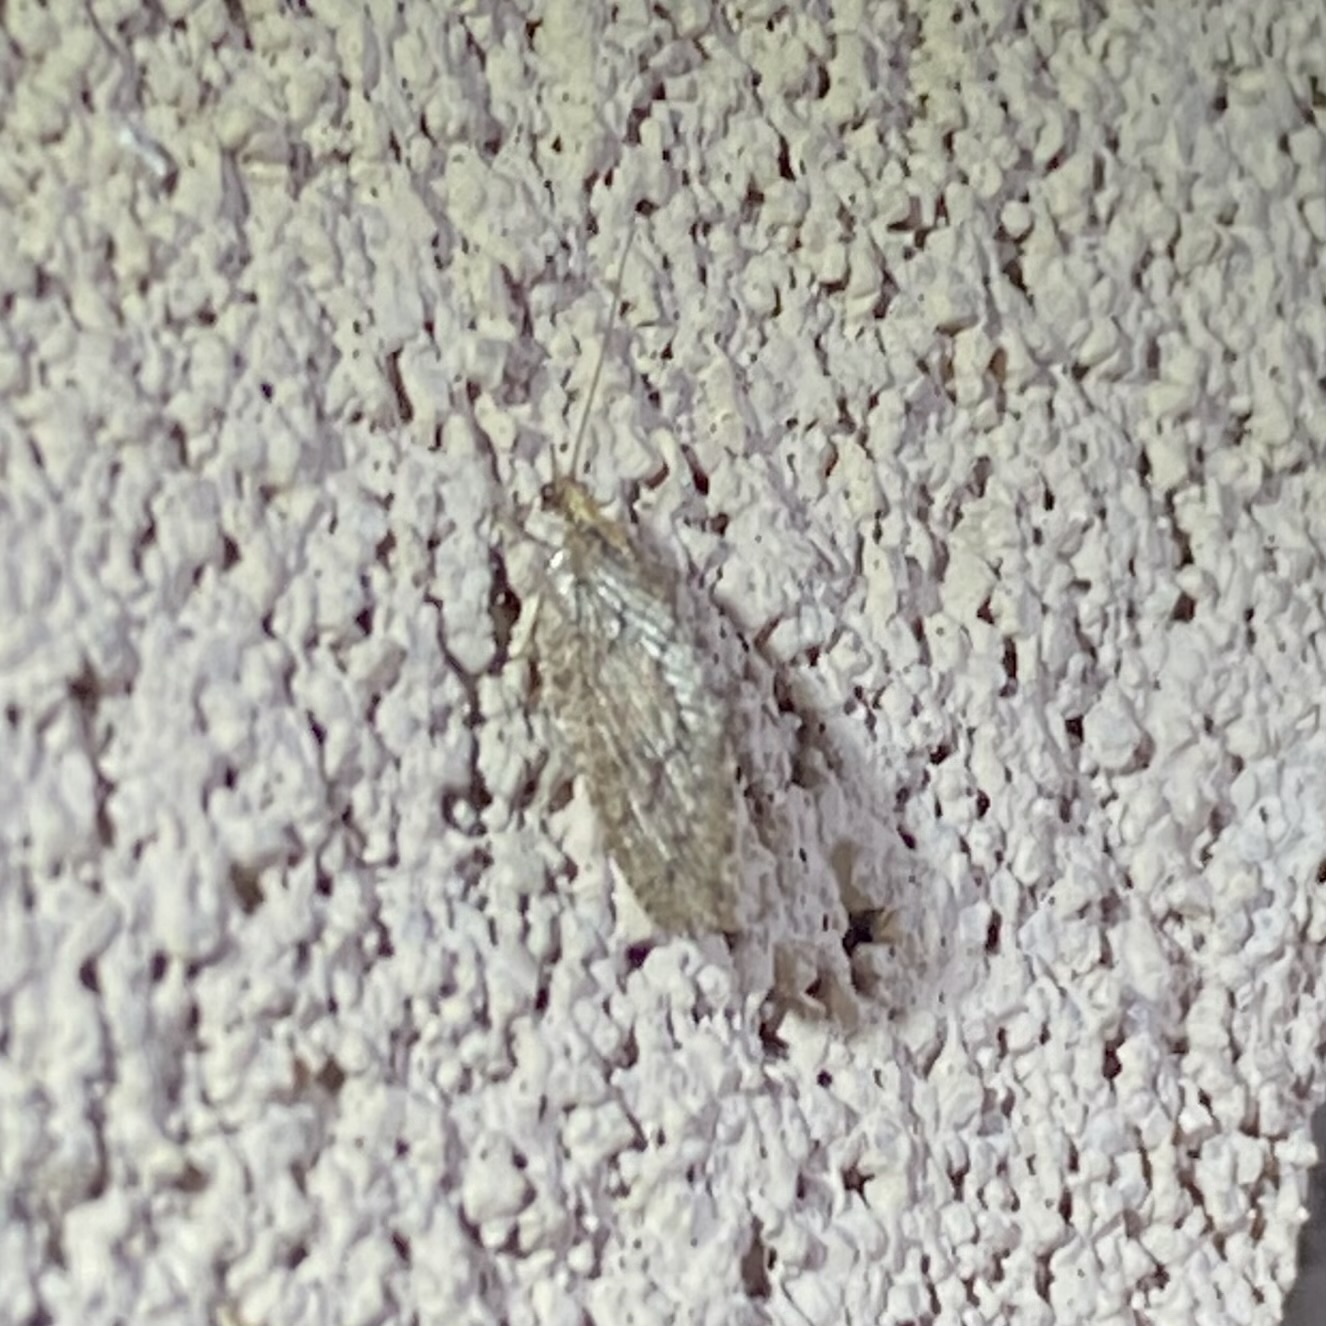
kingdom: Animalia
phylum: Arthropoda
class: Insecta
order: Neuroptera
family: Hemerobiidae
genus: Wesmaelius
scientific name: Wesmaelius
